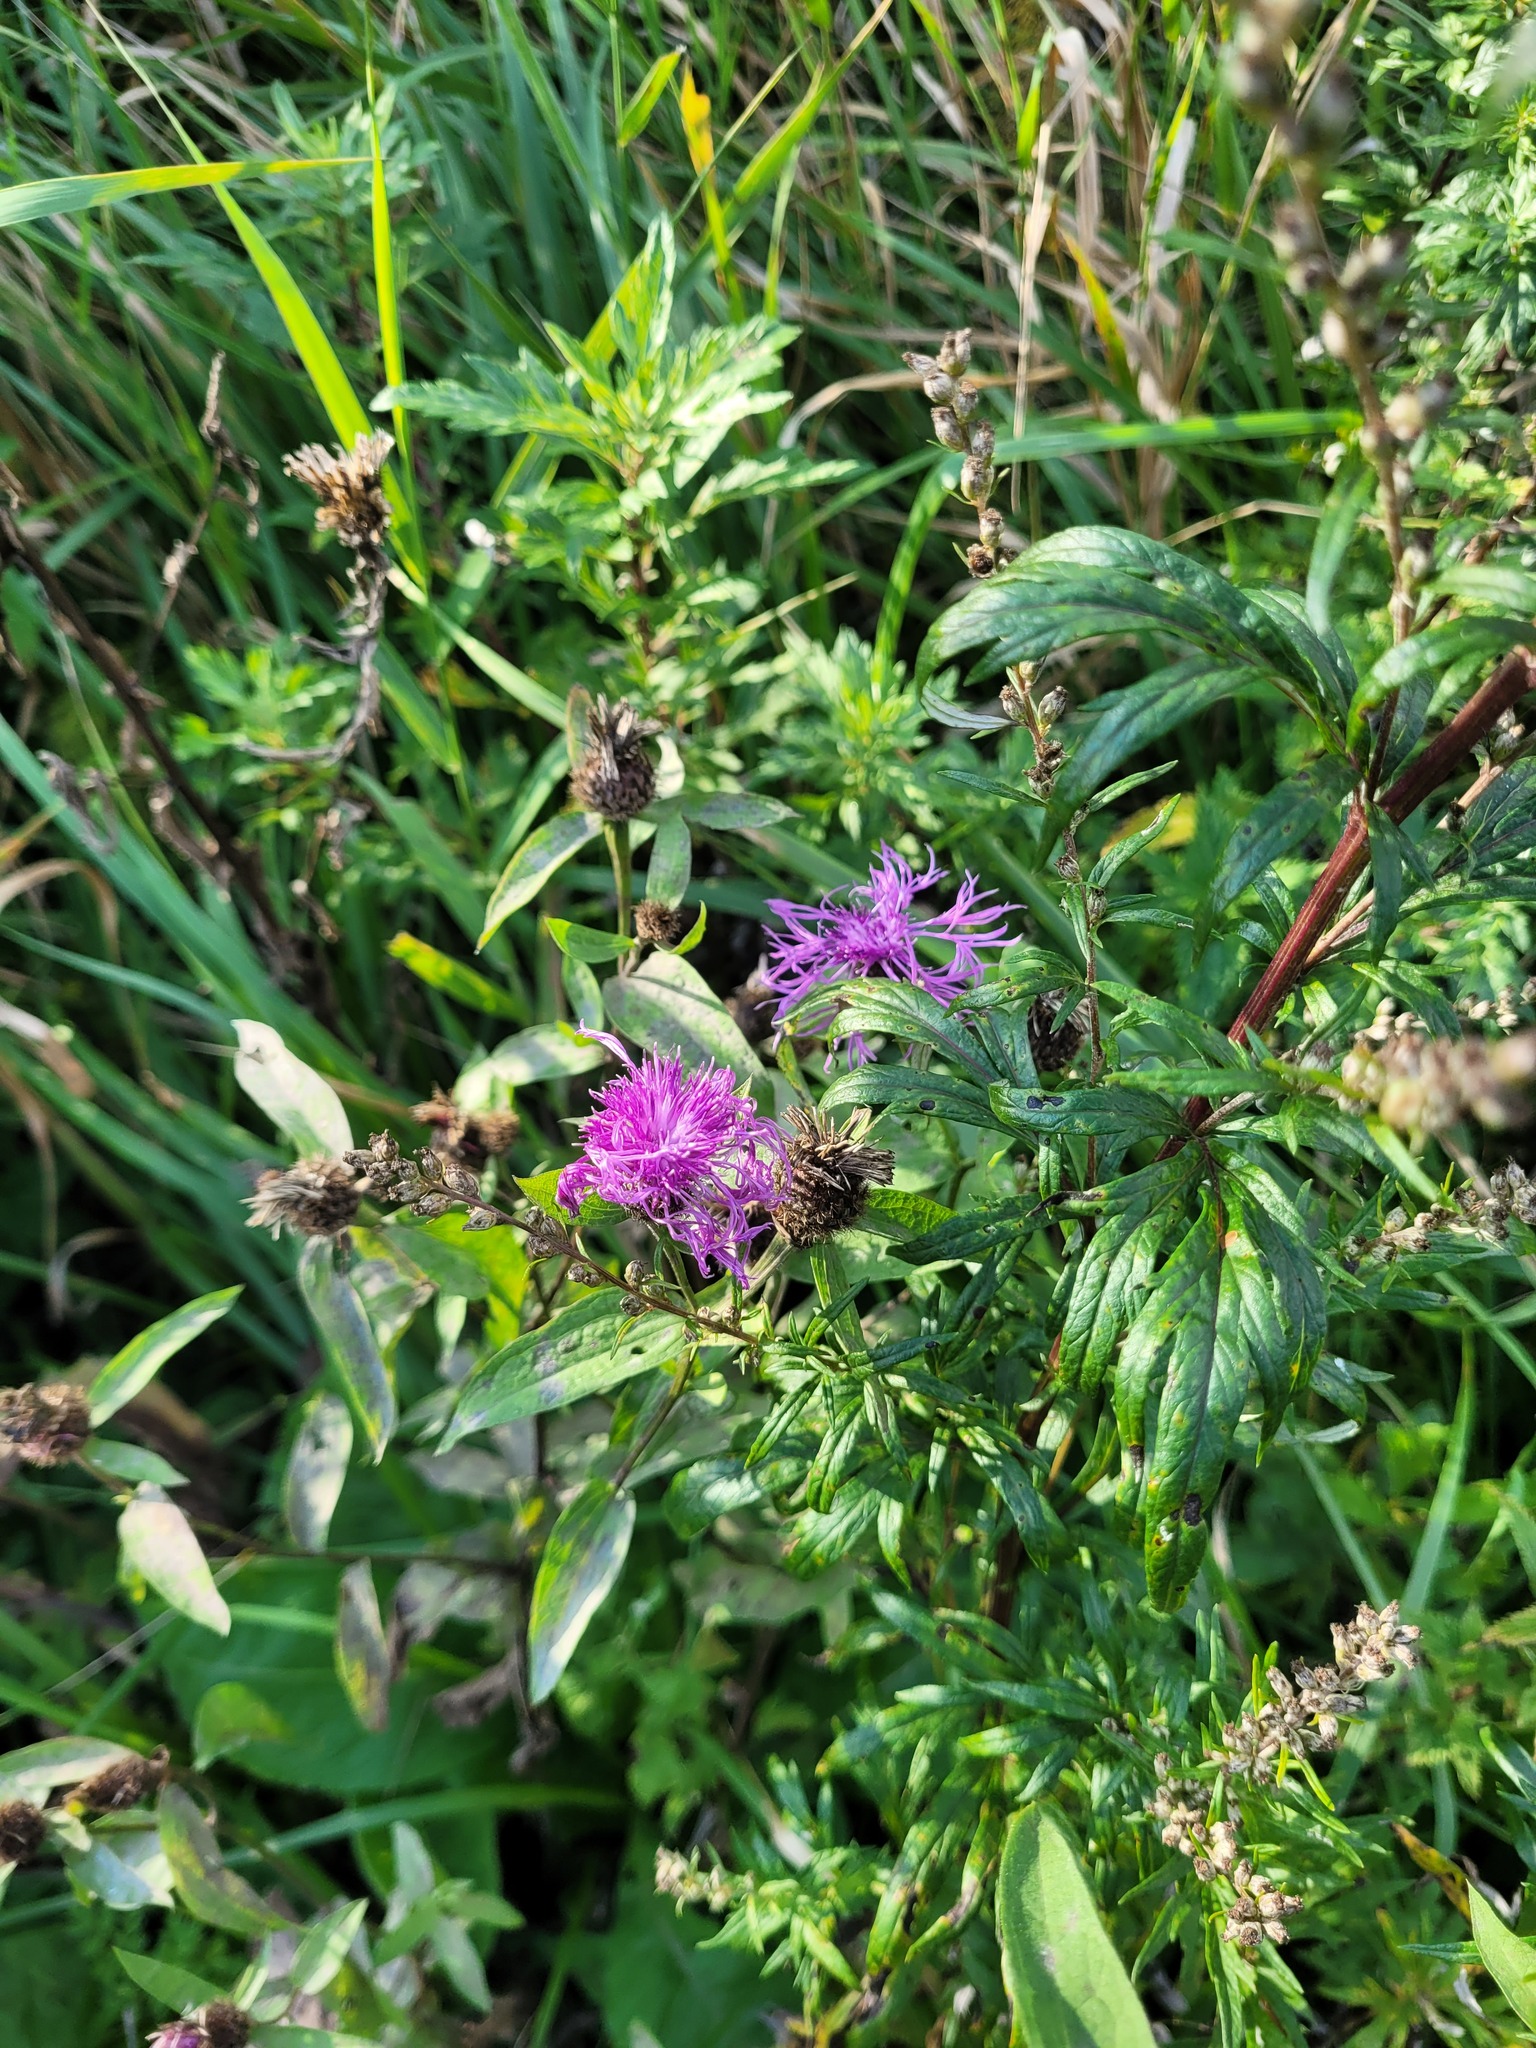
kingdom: Plantae
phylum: Tracheophyta
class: Magnoliopsida
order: Asterales
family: Asteraceae
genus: Centaurea
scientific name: Centaurea phrygia
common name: Wig knapweed
